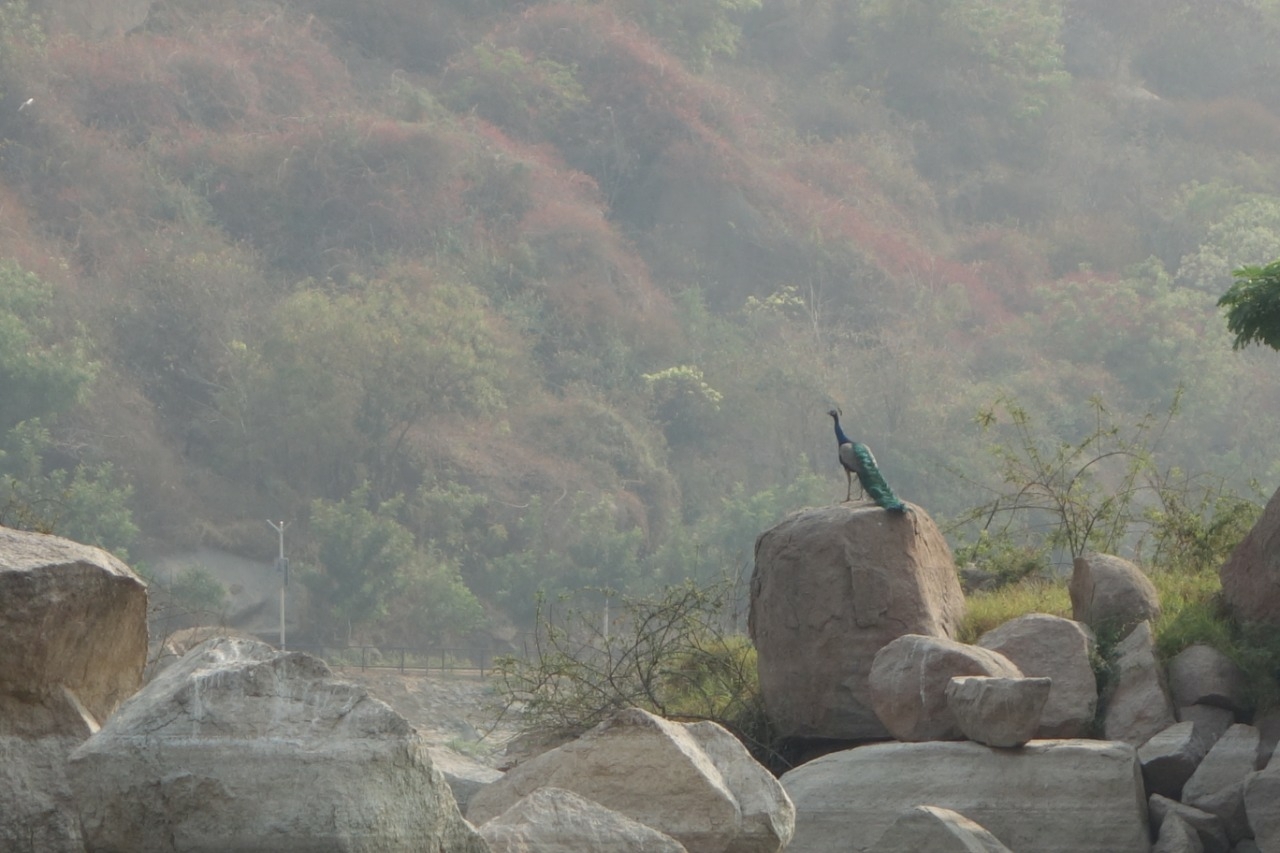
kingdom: Animalia
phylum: Chordata
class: Aves
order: Galliformes
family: Phasianidae
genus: Pavo
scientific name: Pavo cristatus
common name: Indian peafowl
